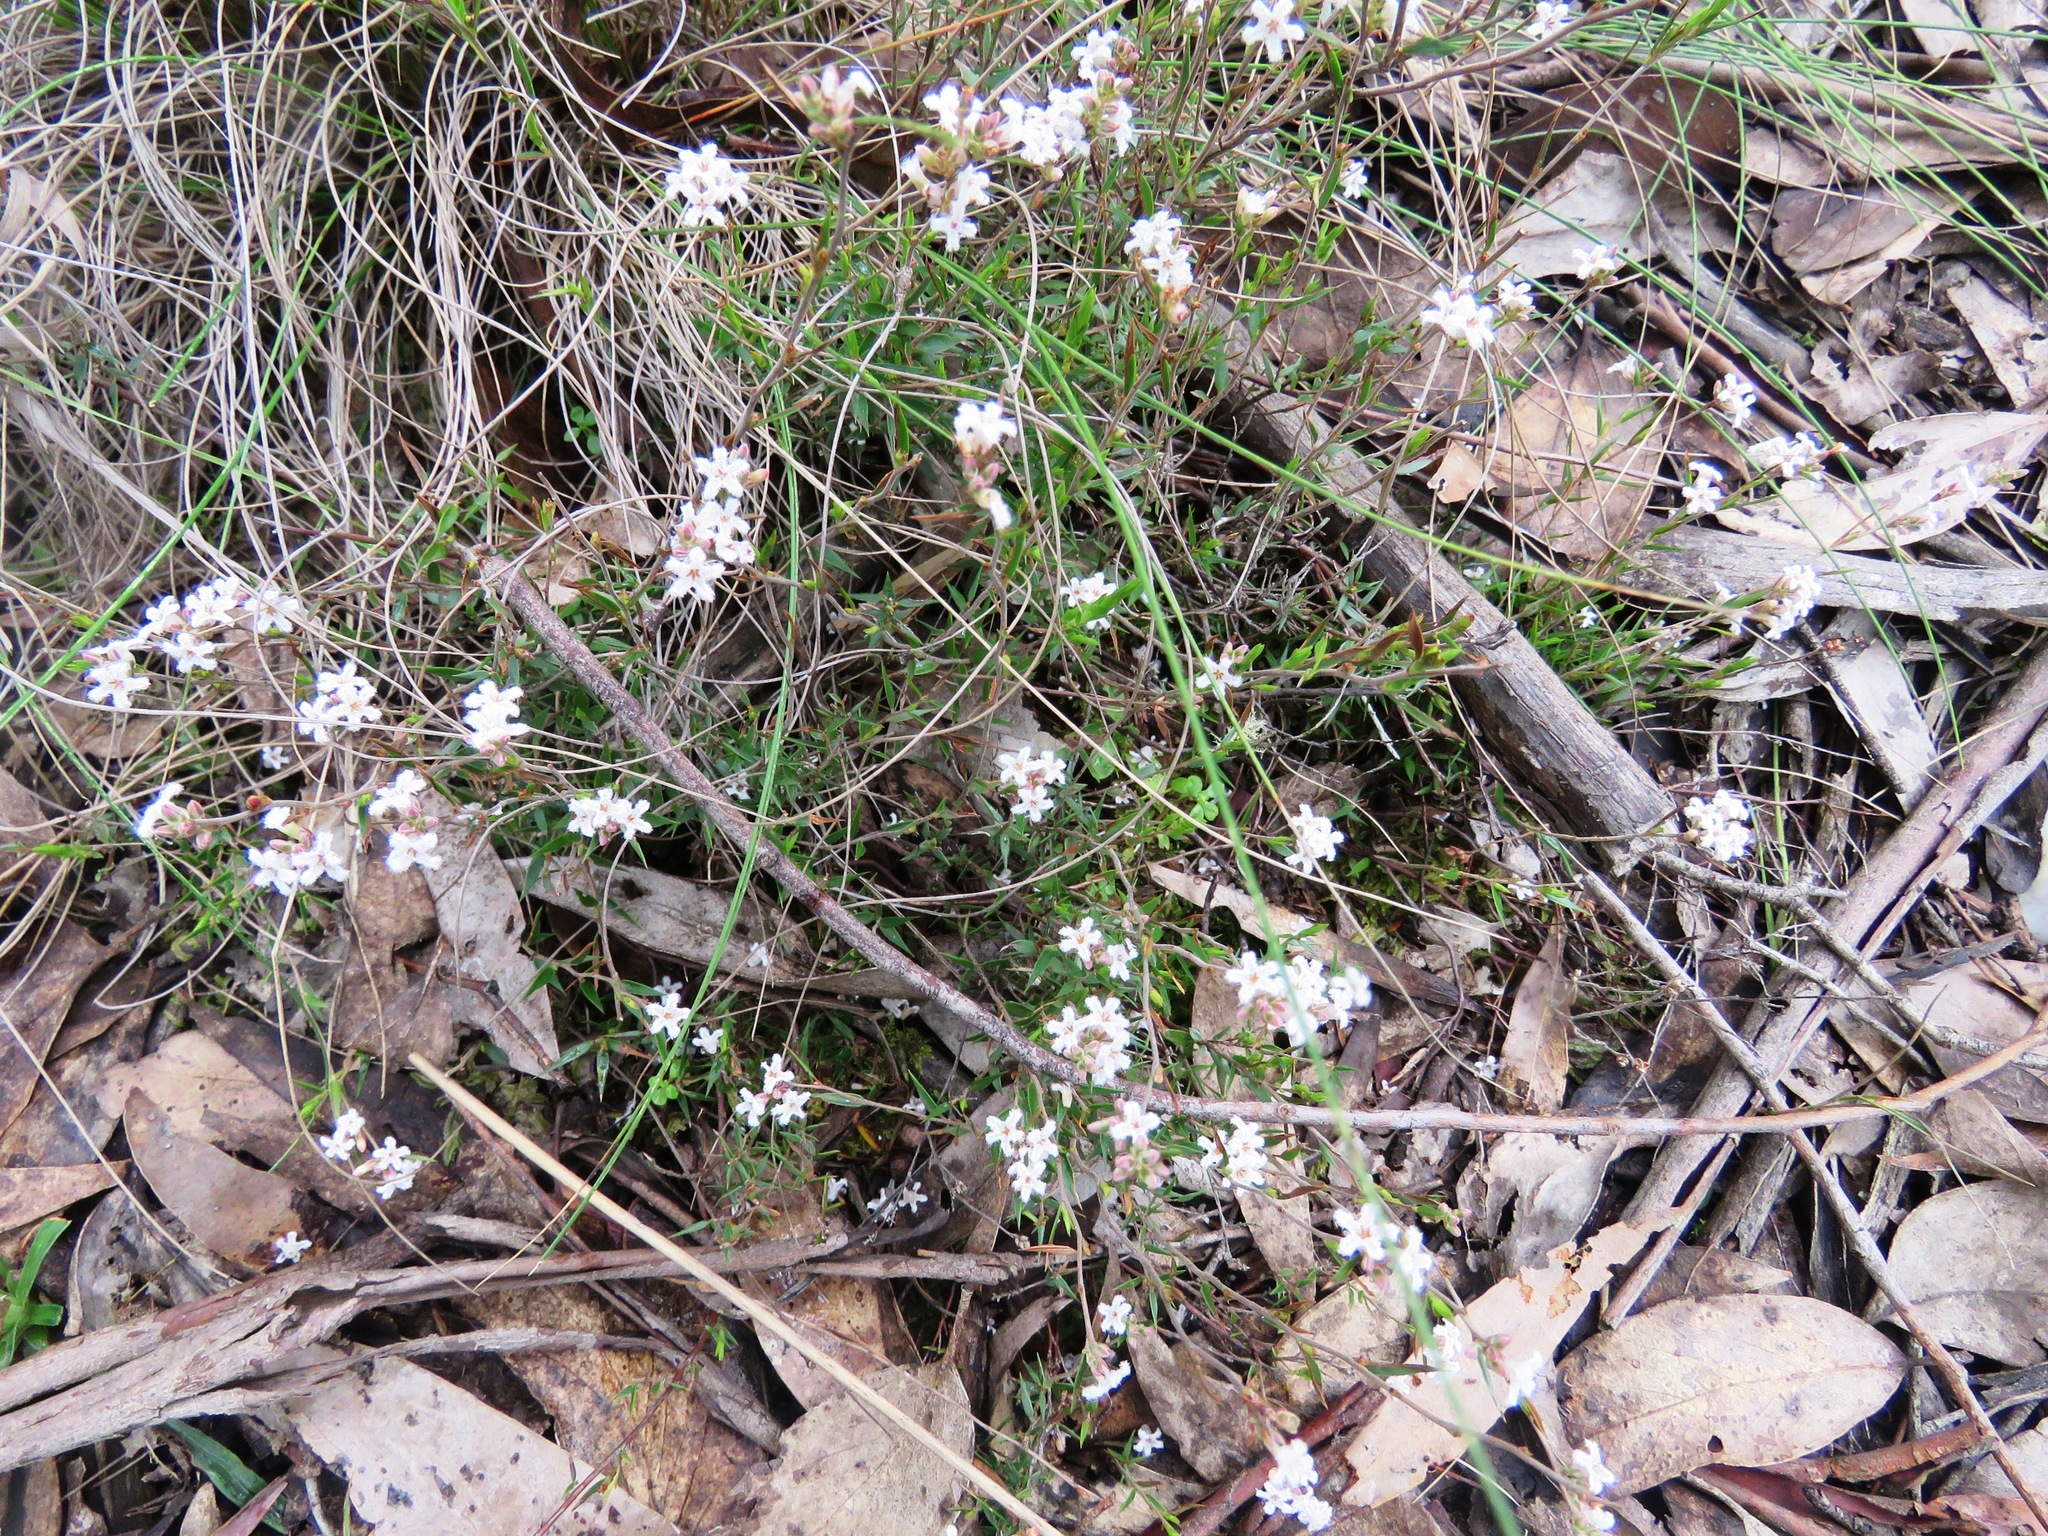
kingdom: Plantae
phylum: Tracheophyta
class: Magnoliopsida
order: Ericales
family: Ericaceae
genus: Leucopogon
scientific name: Leucopogon virgatus
